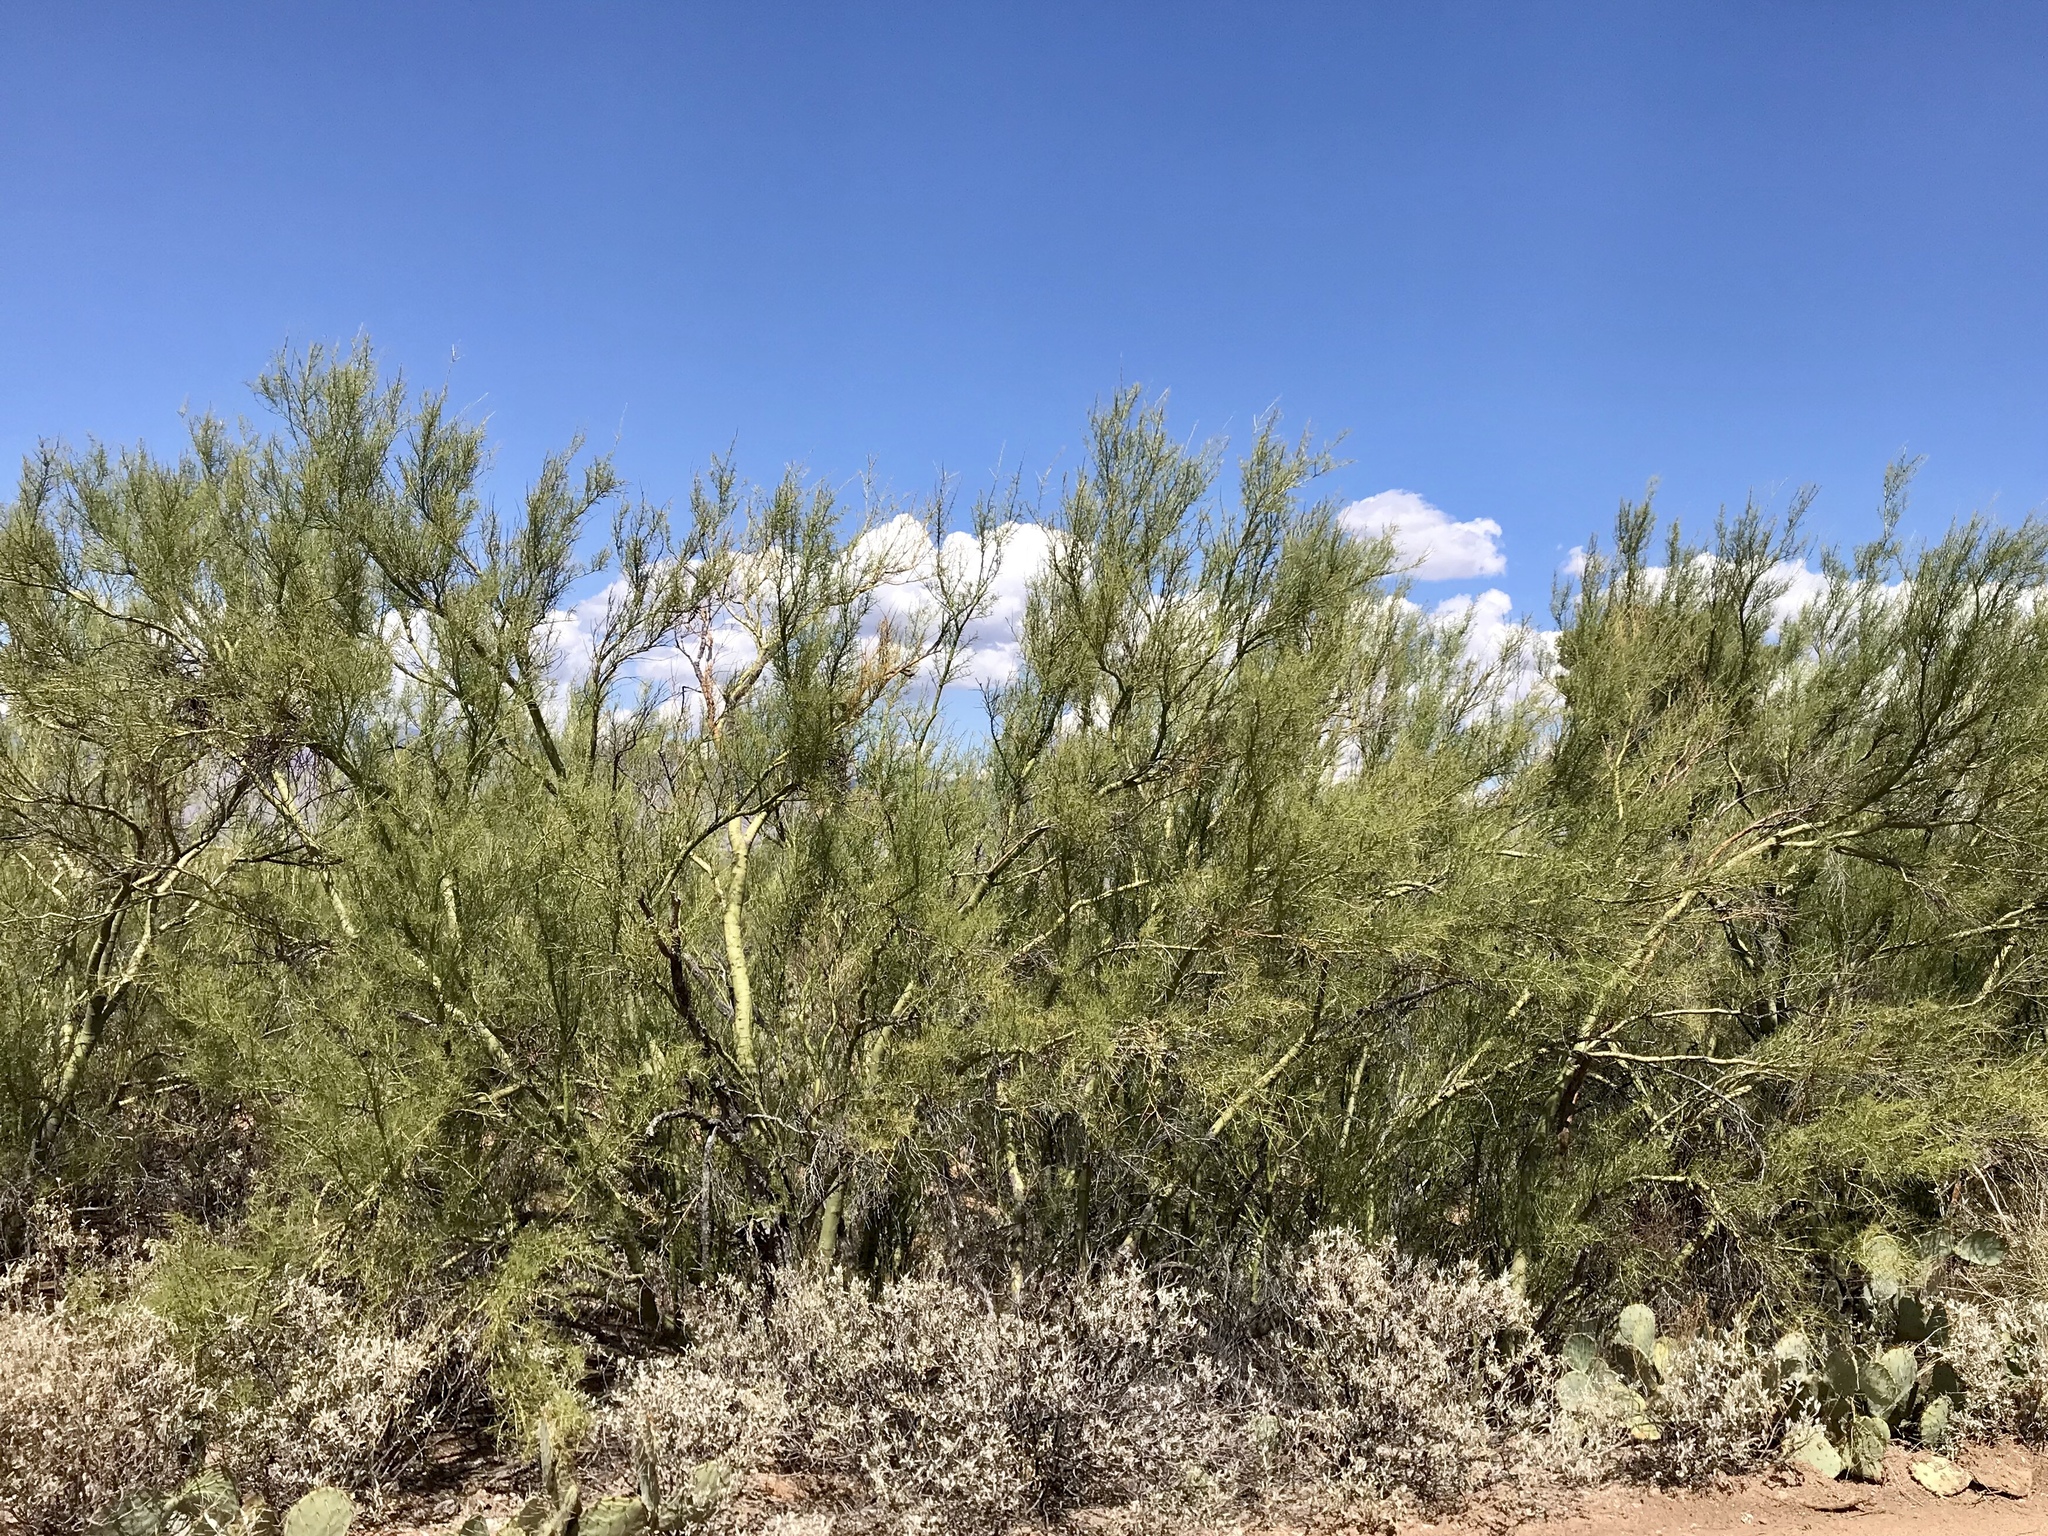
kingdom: Plantae
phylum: Tracheophyta
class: Magnoliopsida
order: Fabales
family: Fabaceae
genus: Parkinsonia
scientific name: Parkinsonia microphylla
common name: Yellow paloverde
